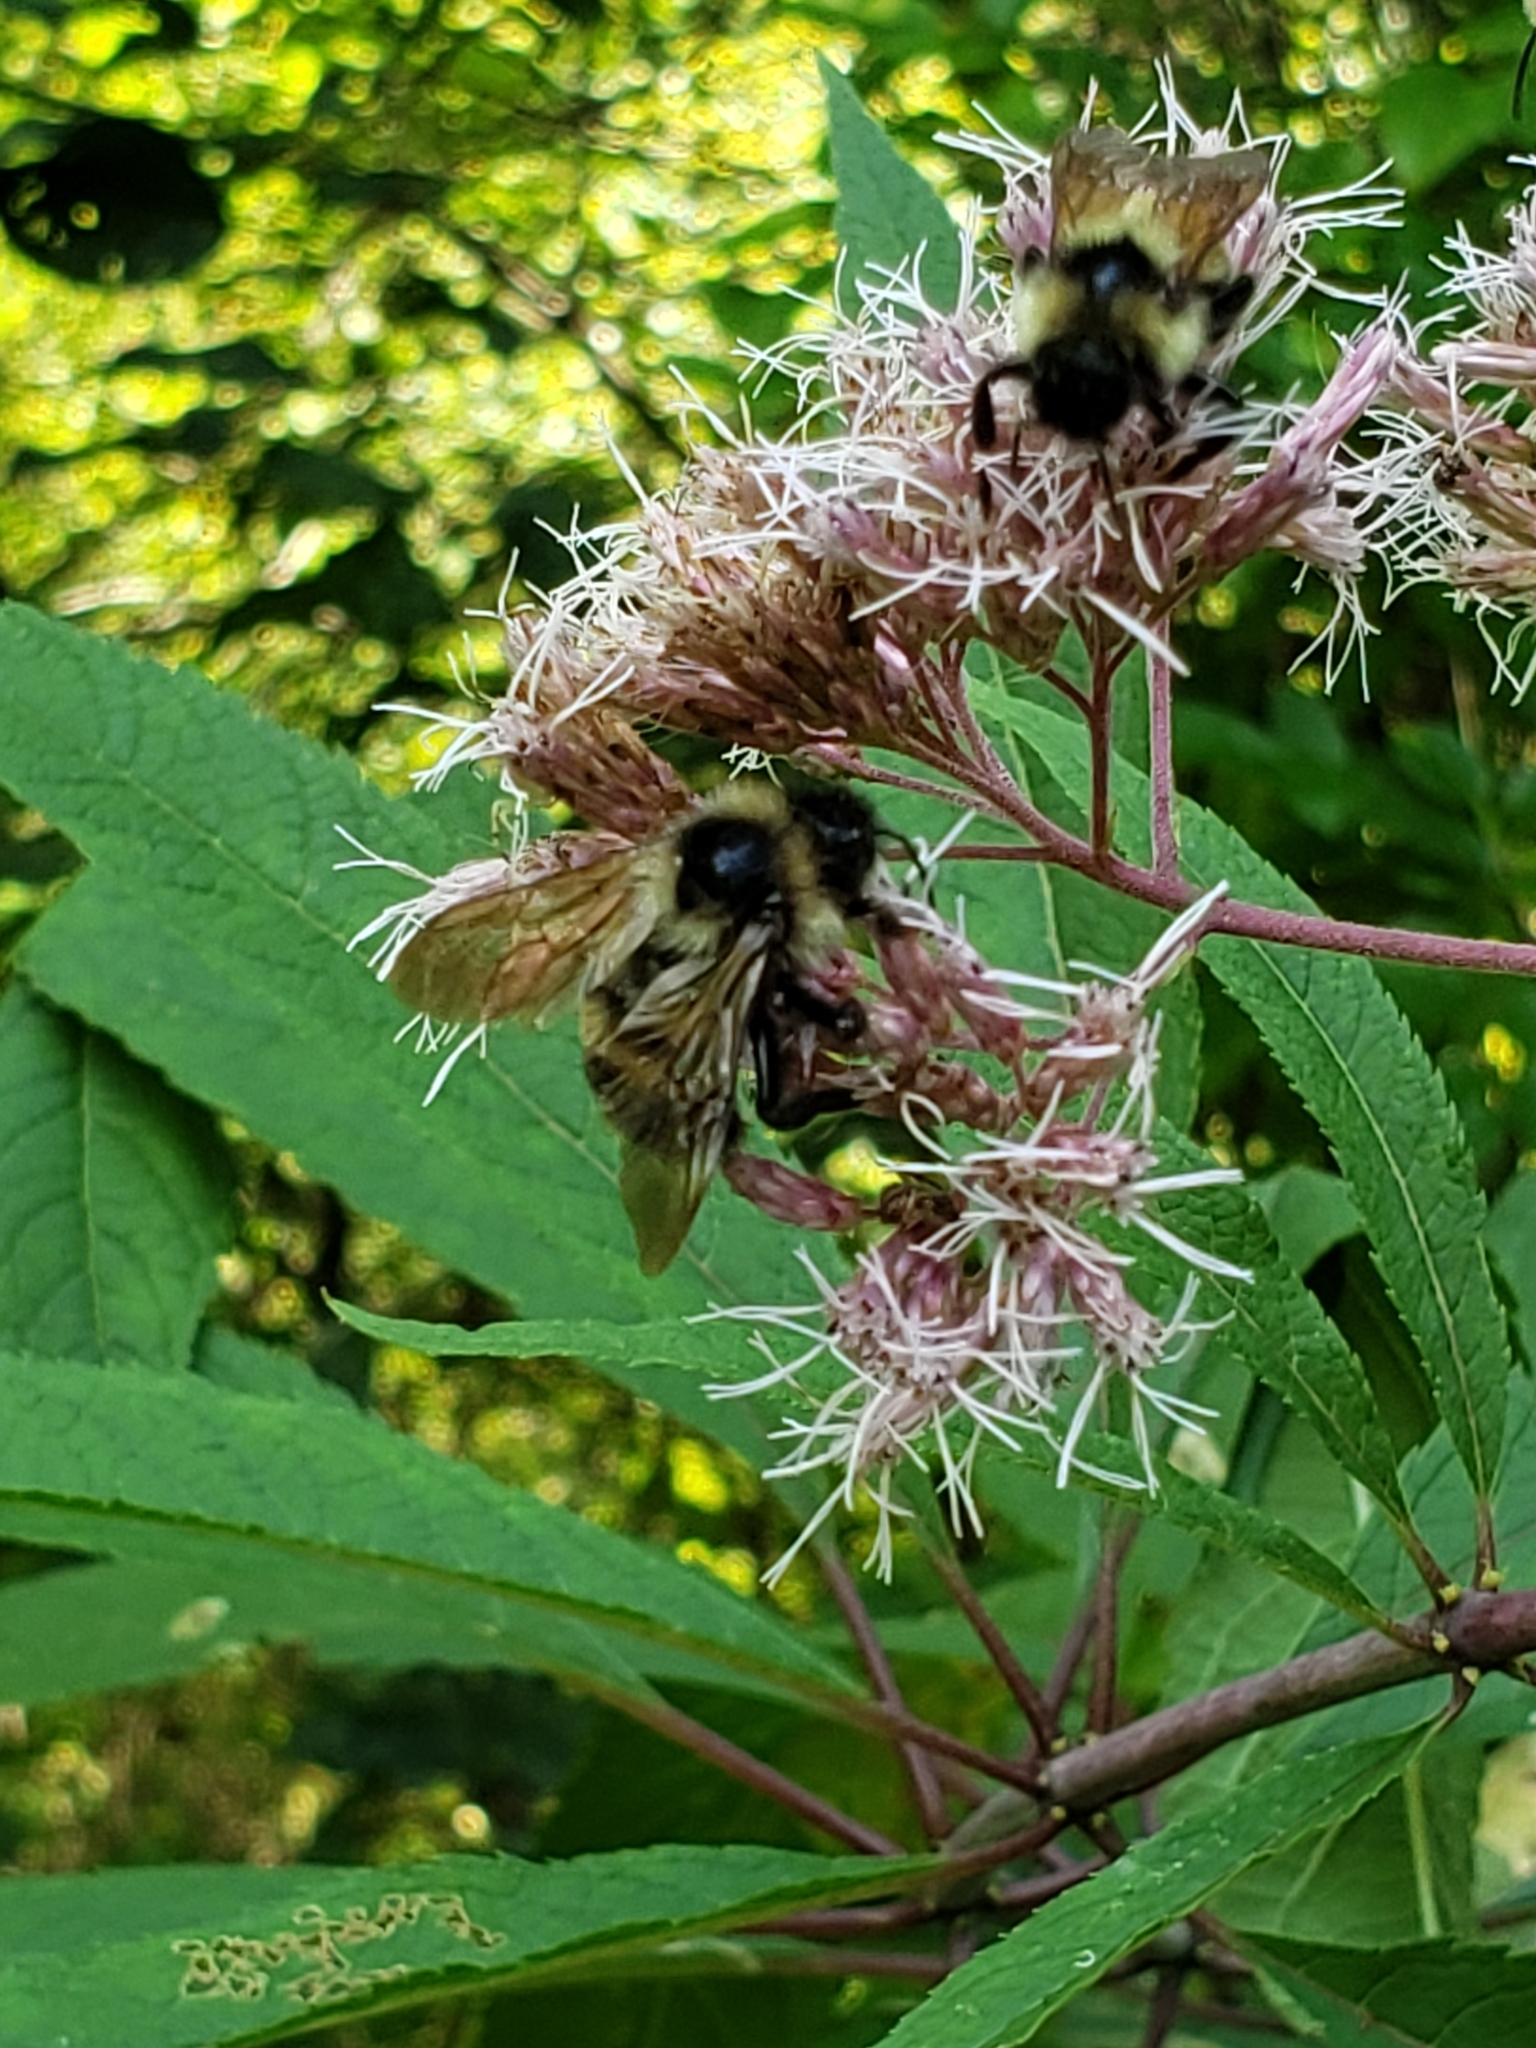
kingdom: Animalia
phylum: Arthropoda
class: Insecta
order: Hymenoptera
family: Apidae
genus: Bombus
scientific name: Bombus citrinus
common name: Lemon cuckoo bumble bee
